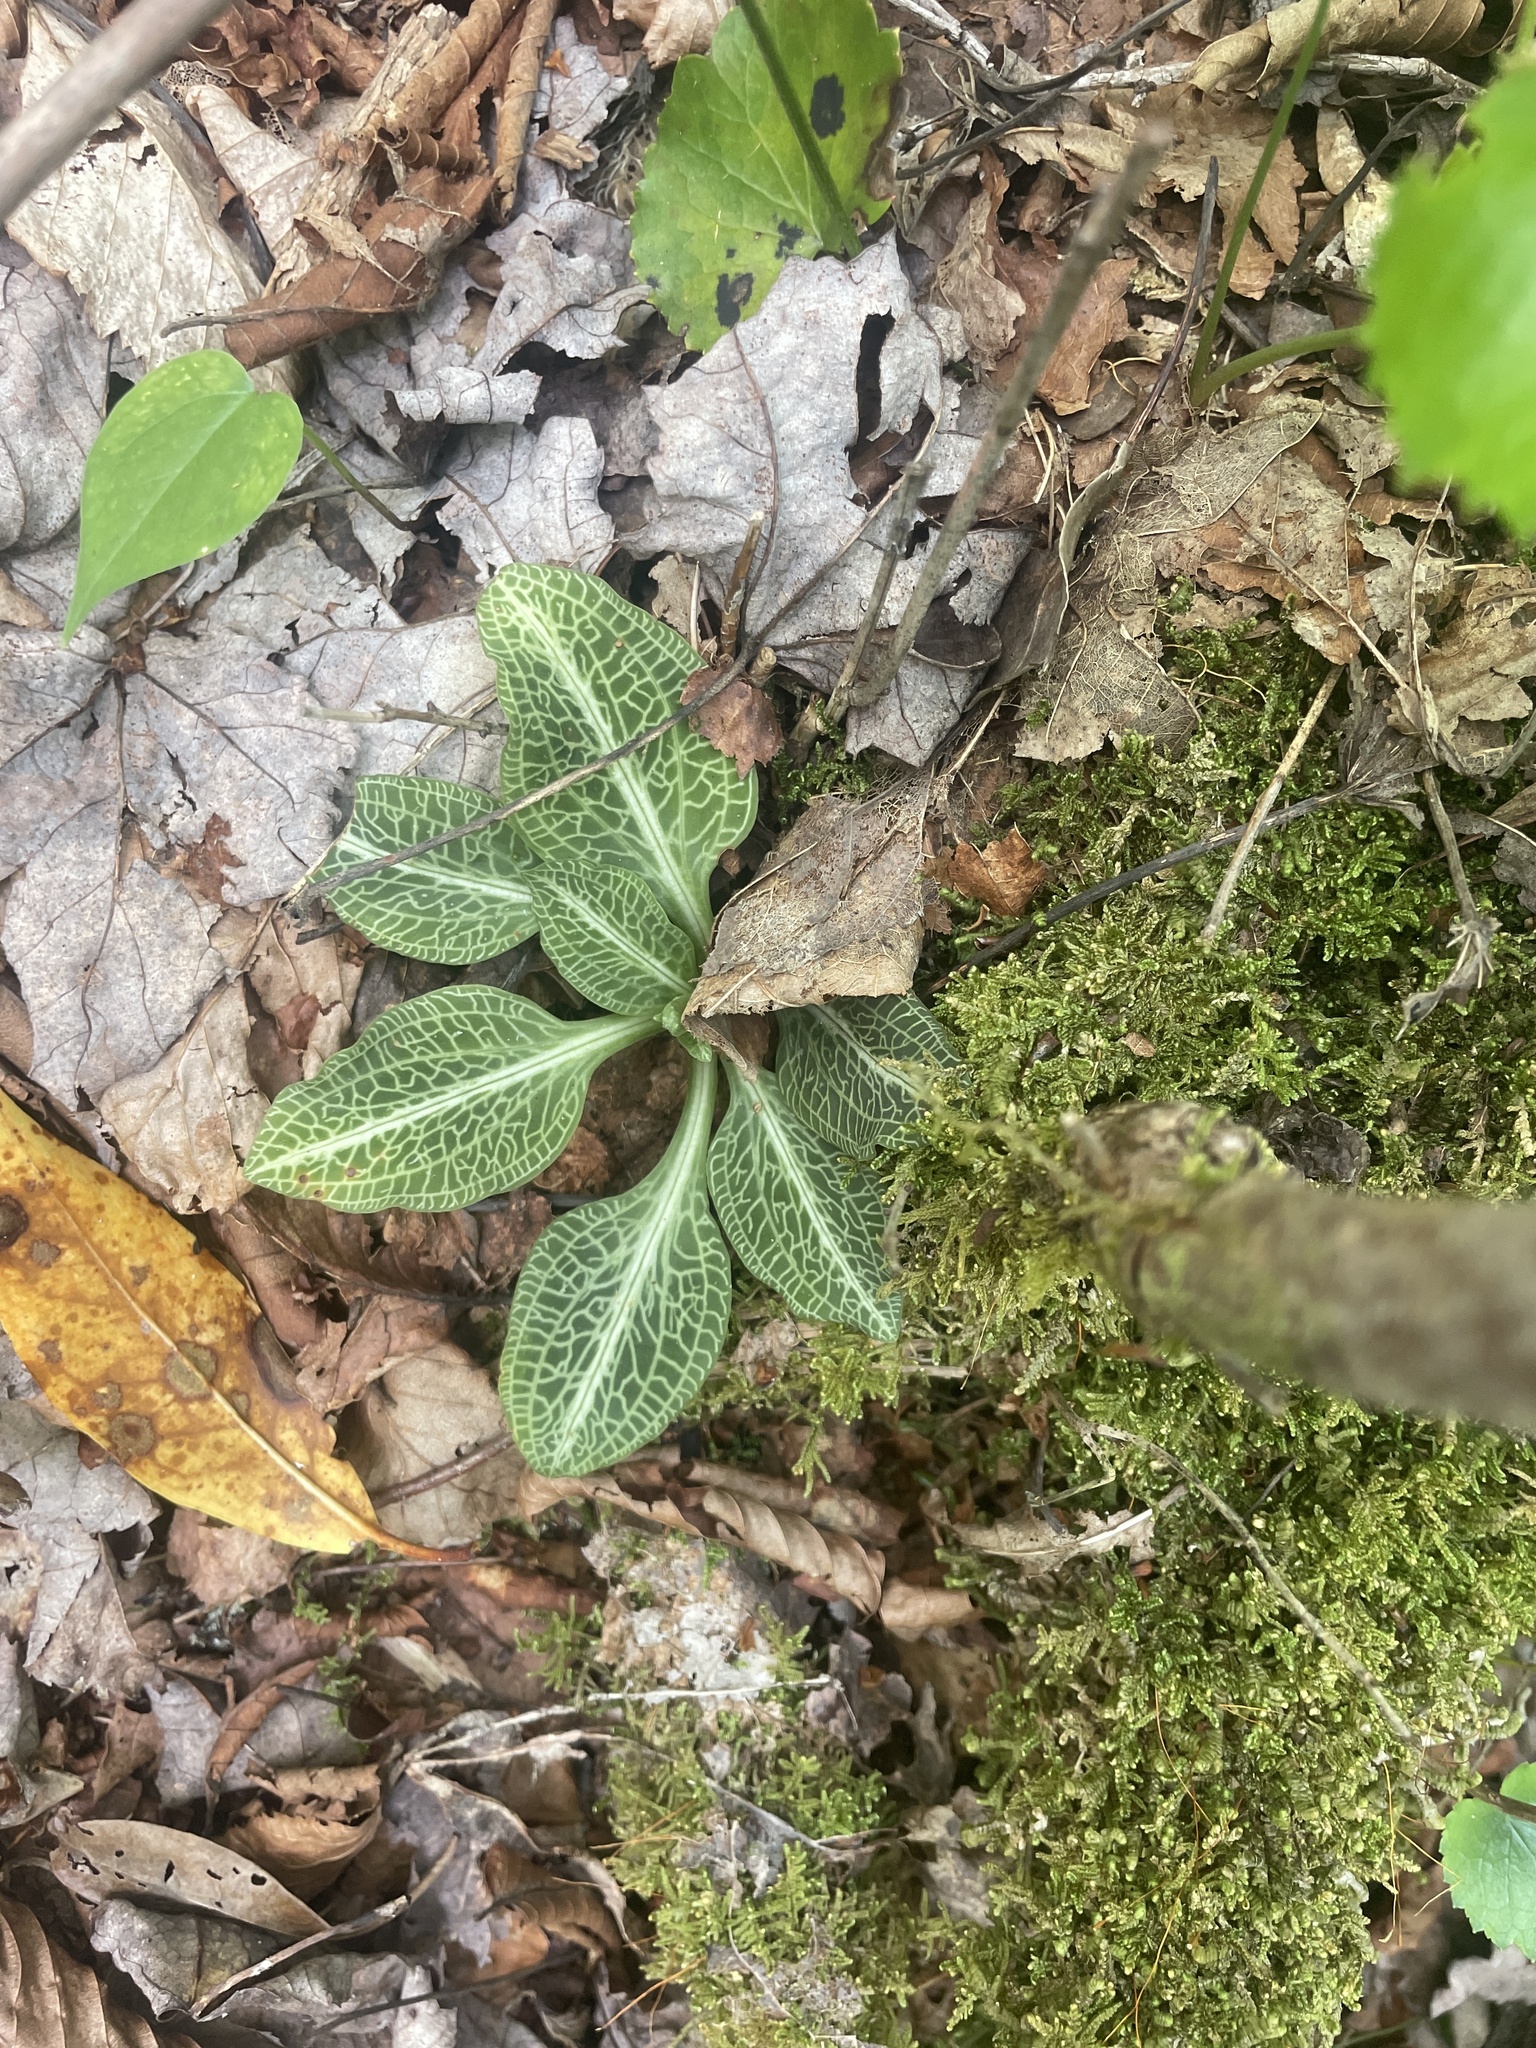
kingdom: Plantae
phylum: Tracheophyta
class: Liliopsida
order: Asparagales
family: Orchidaceae
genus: Goodyera
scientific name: Goodyera pubescens
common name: Downy rattlesnake-plantain
